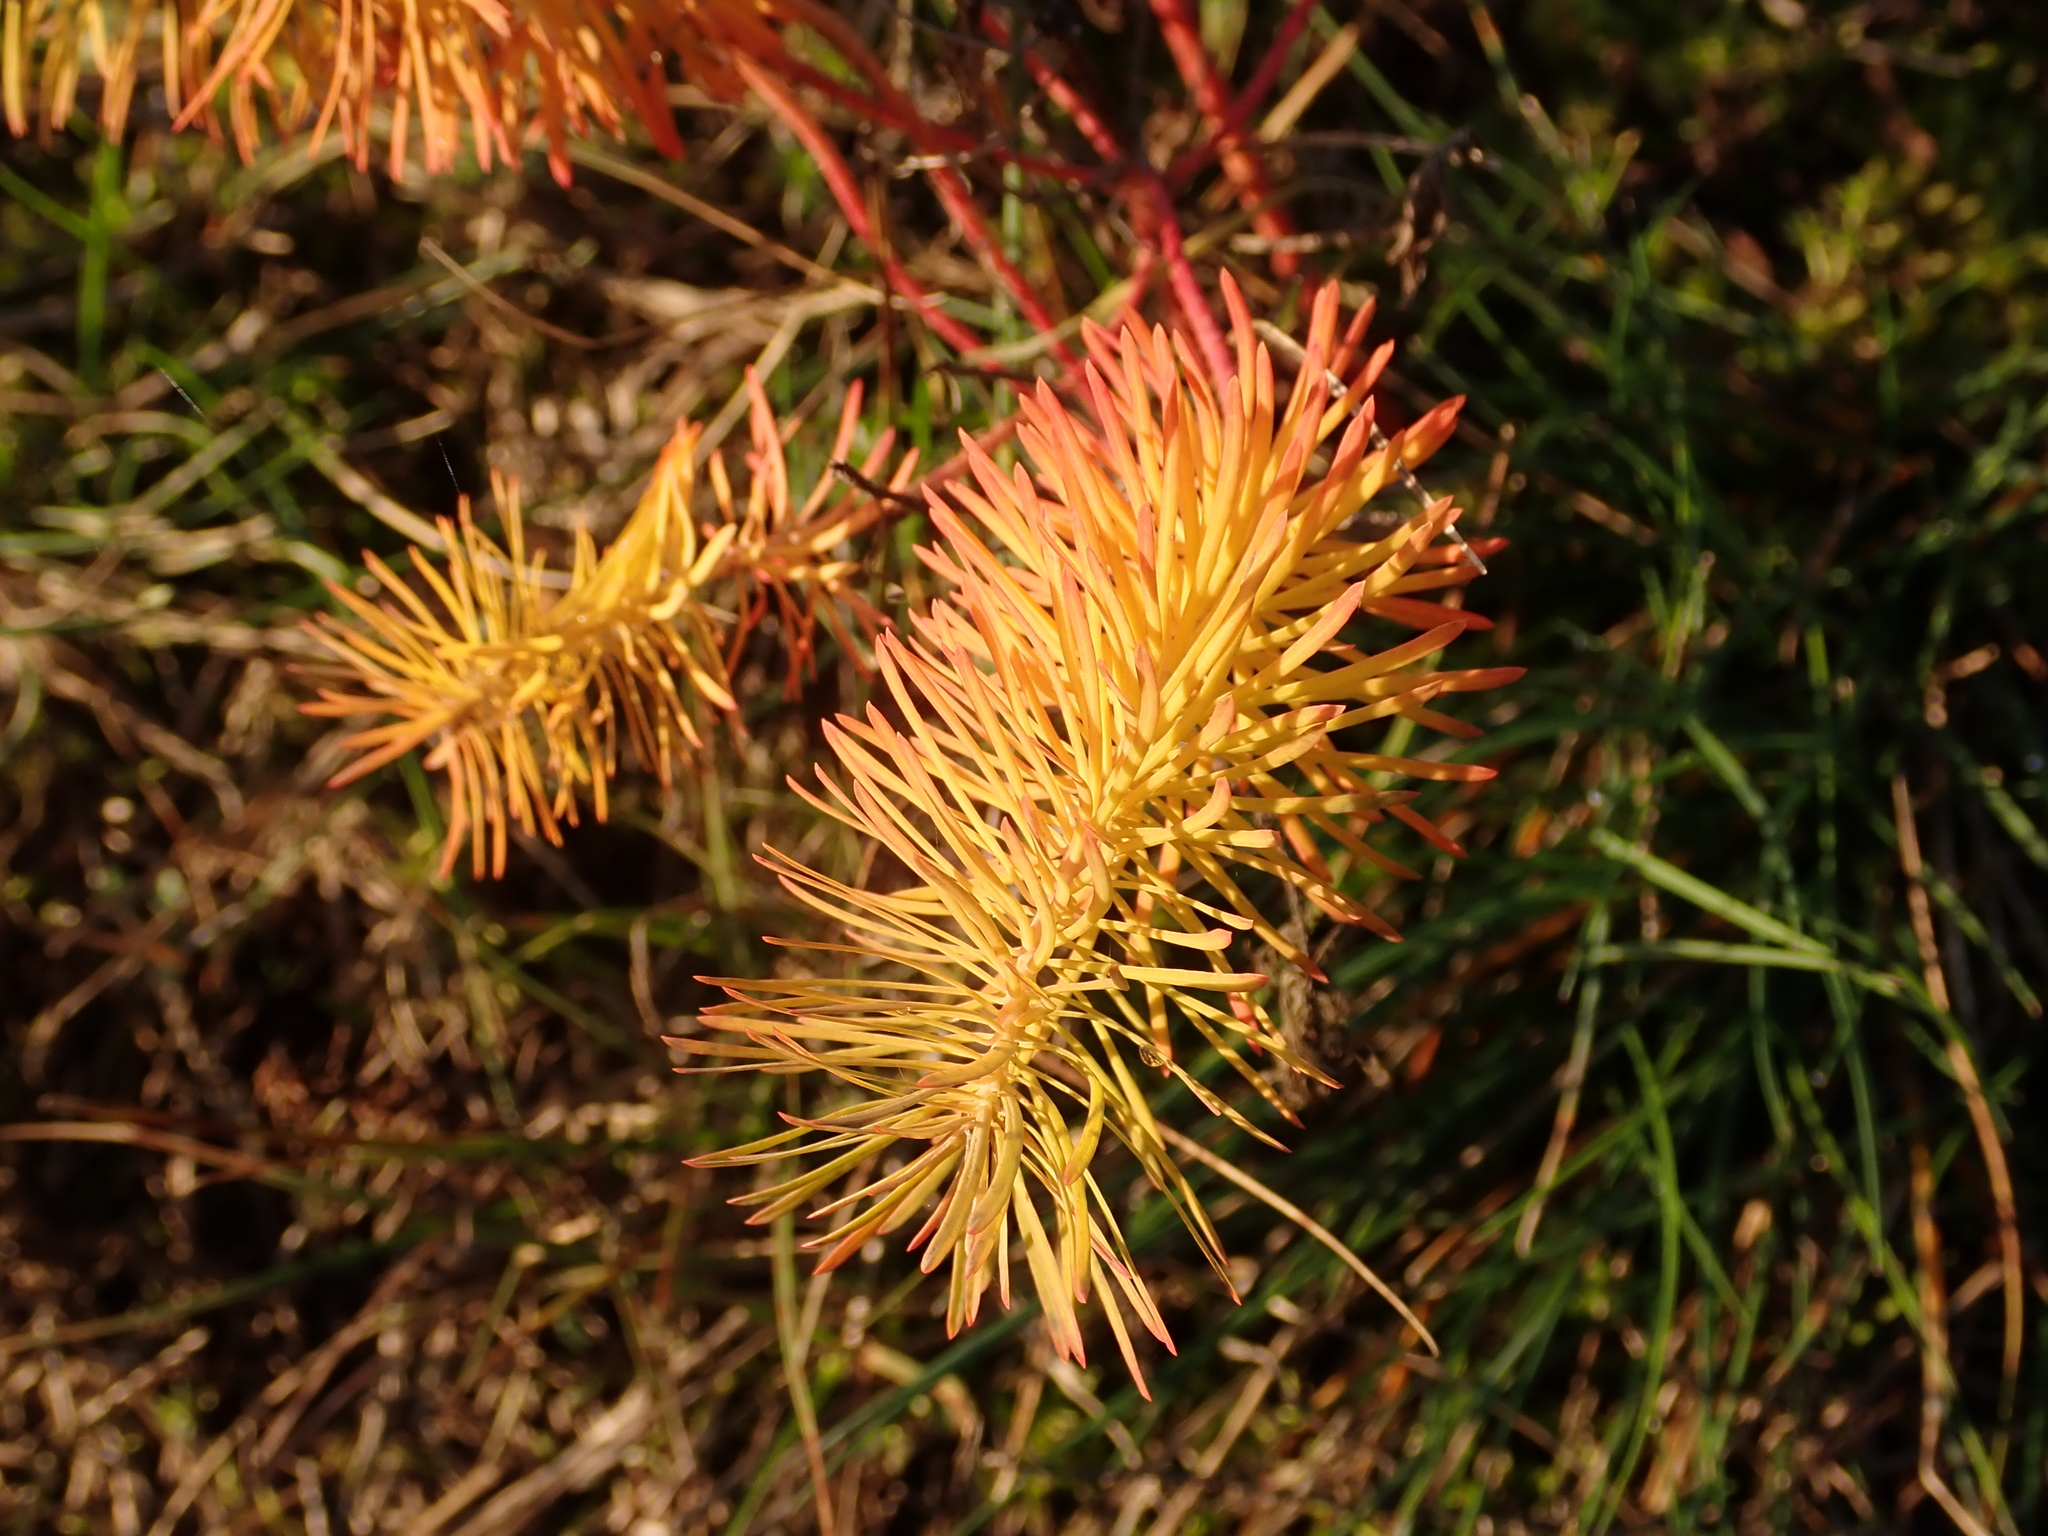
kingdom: Plantae
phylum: Tracheophyta
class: Magnoliopsida
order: Malpighiales
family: Euphorbiaceae
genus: Euphorbia
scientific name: Euphorbia cyparissias
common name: Cypress spurge
